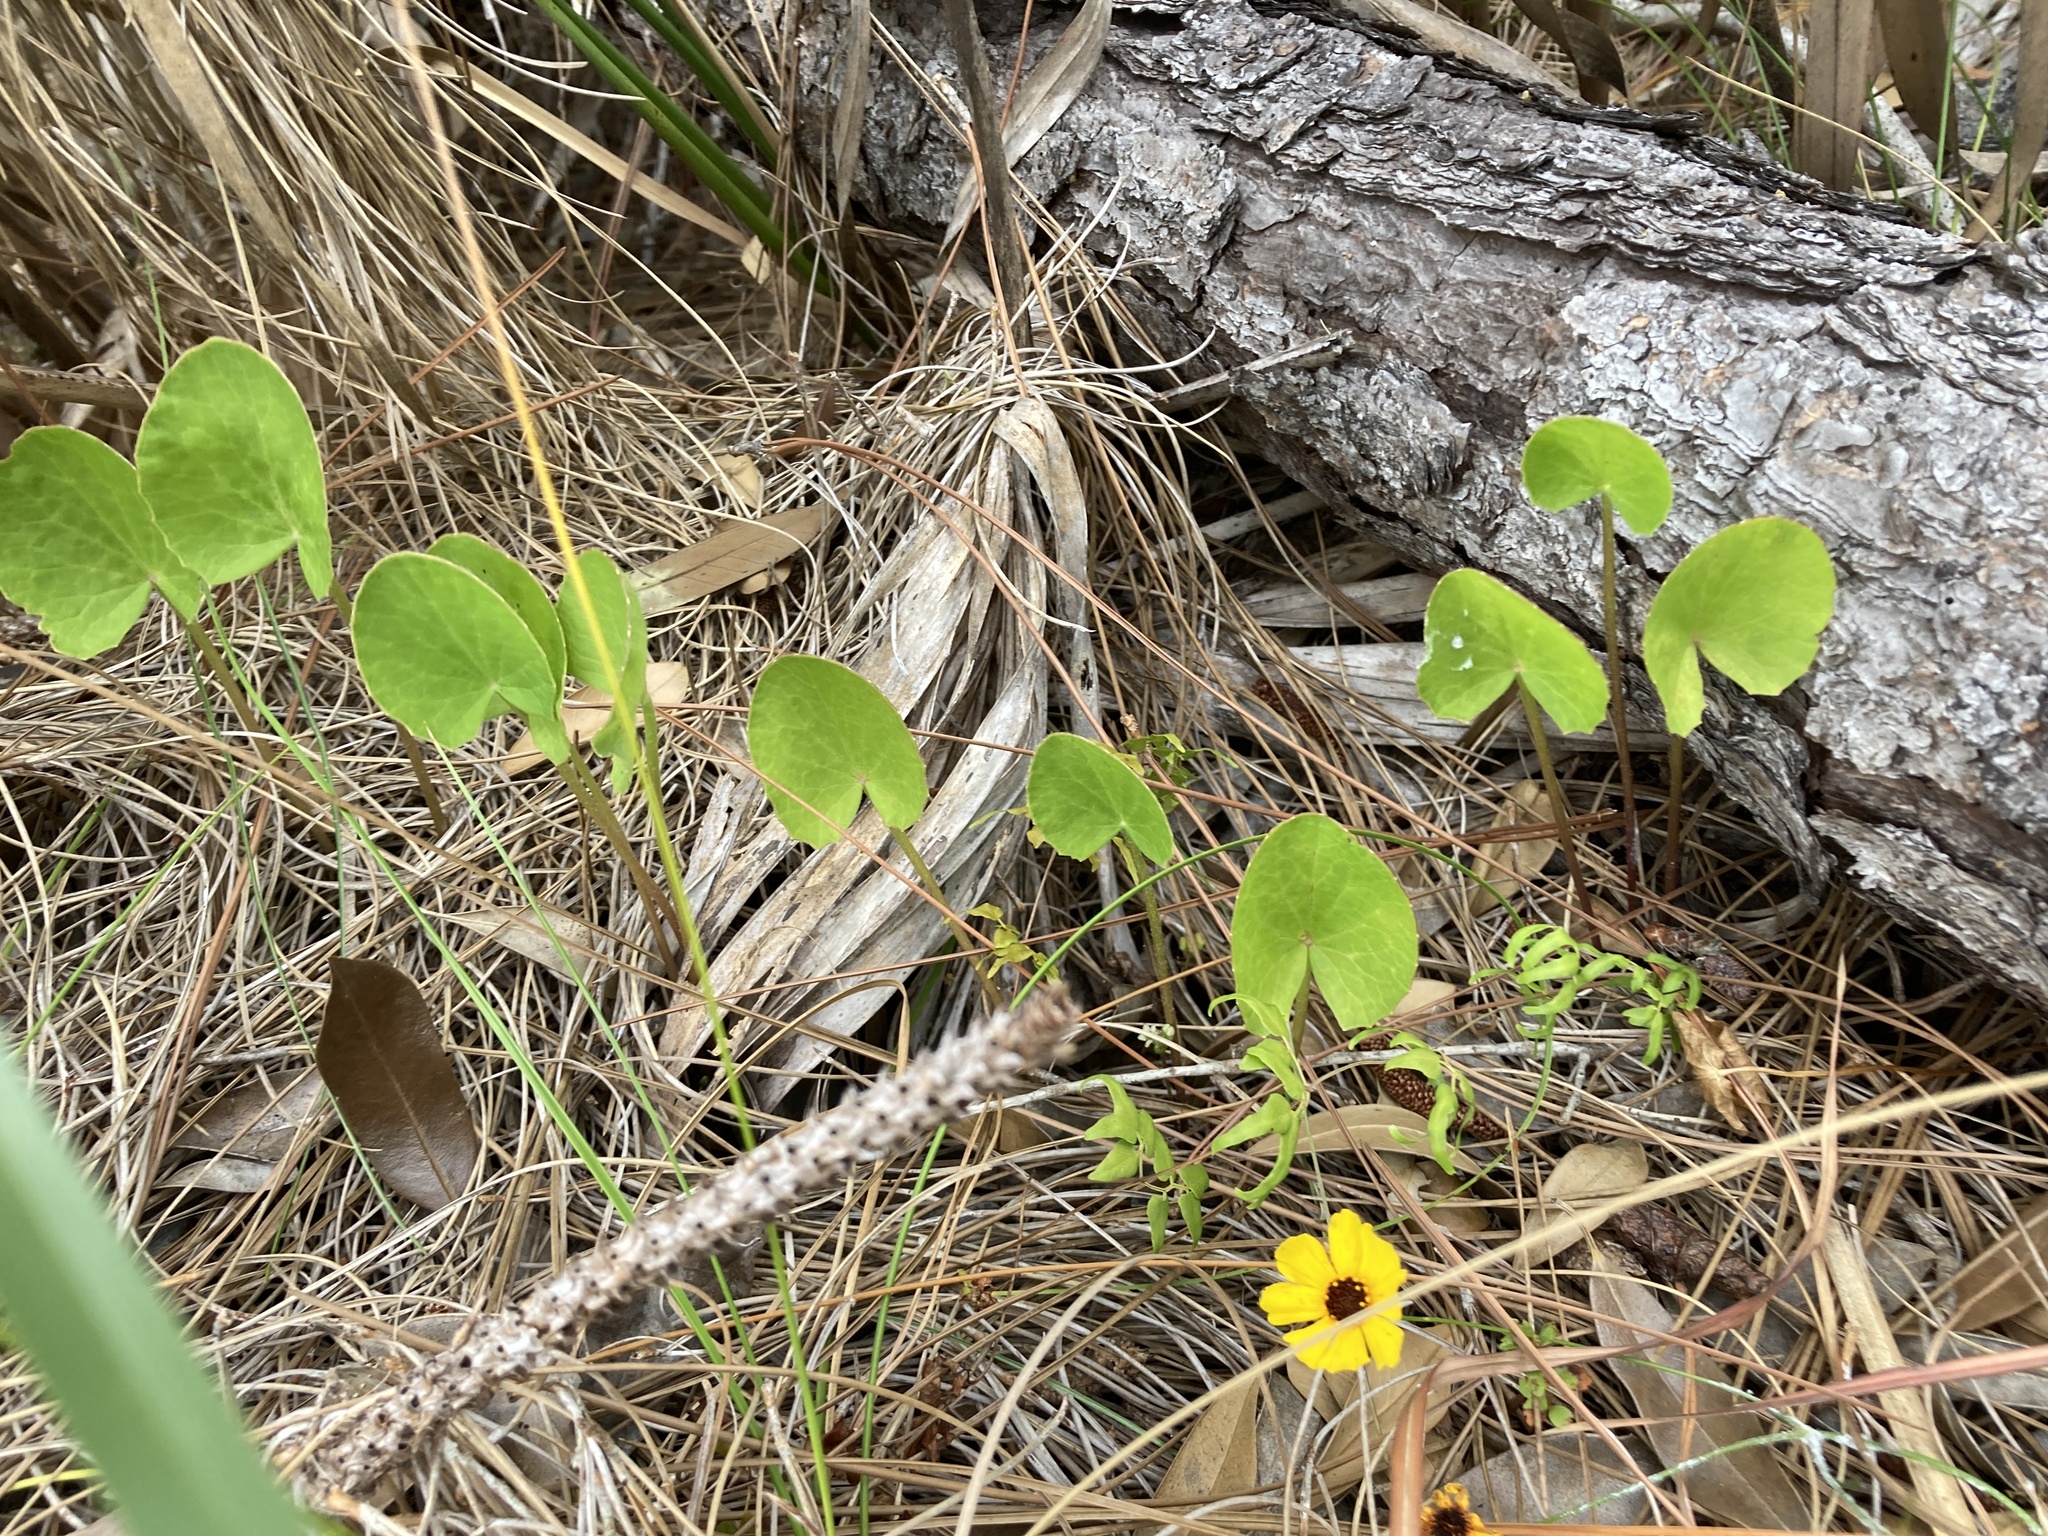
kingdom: Plantae
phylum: Tracheophyta
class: Magnoliopsida
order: Apiales
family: Apiaceae
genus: Centella
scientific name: Centella erecta
